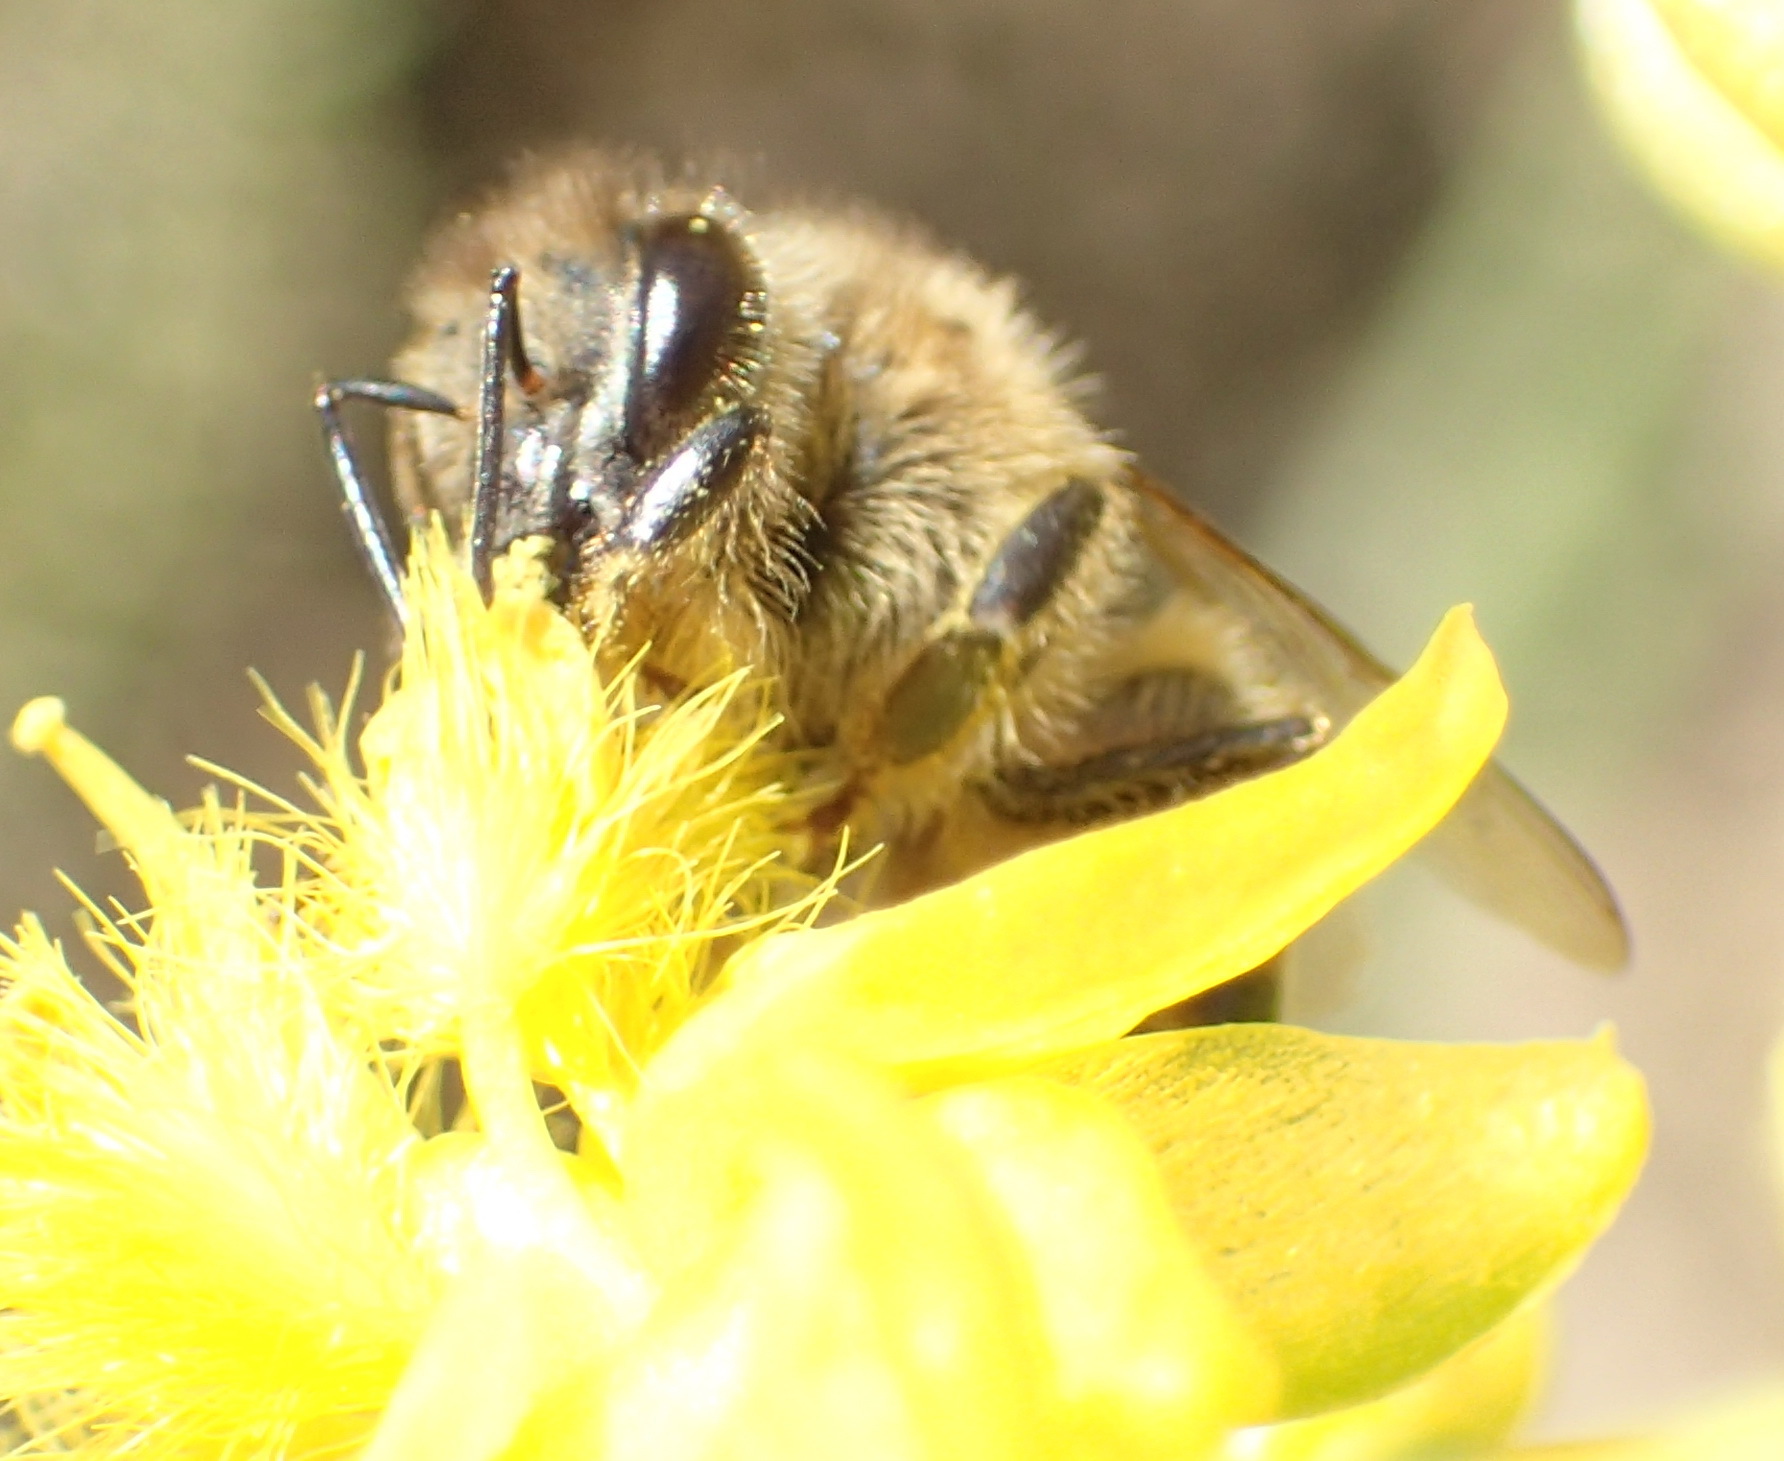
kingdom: Animalia
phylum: Arthropoda
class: Insecta
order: Hymenoptera
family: Apidae
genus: Apis
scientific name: Apis mellifera
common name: Honey bee
